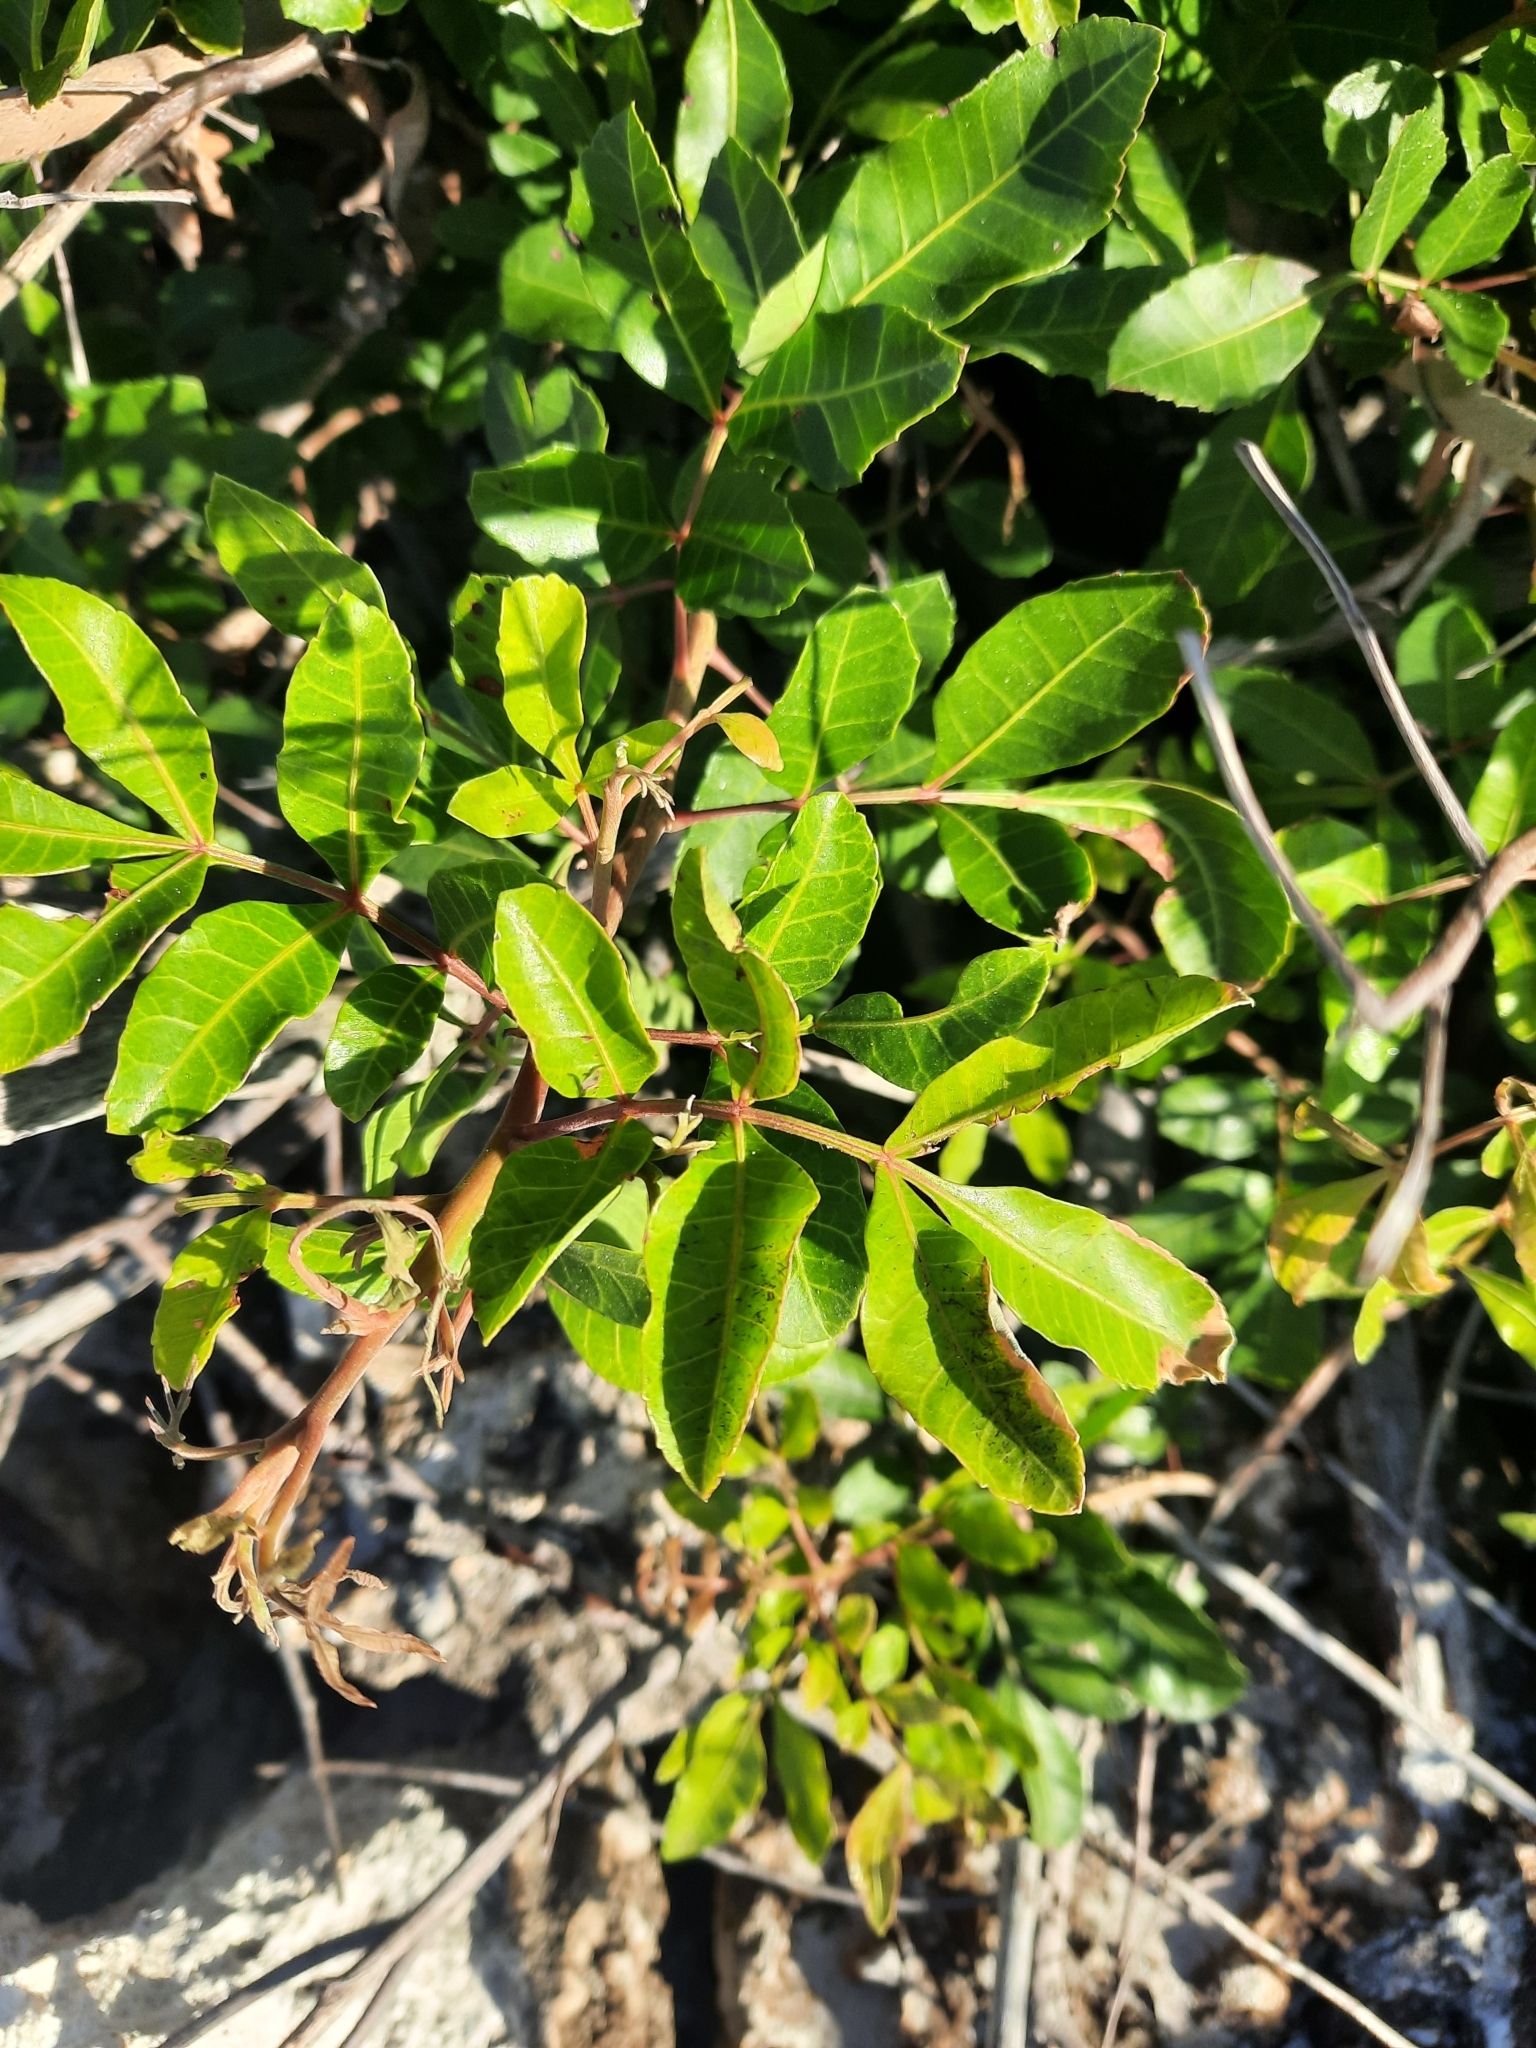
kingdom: Plantae
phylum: Tracheophyta
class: Magnoliopsida
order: Sapindales
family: Anacardiaceae
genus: Schinus
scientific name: Schinus terebinthifolia
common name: Brazilian peppertree
